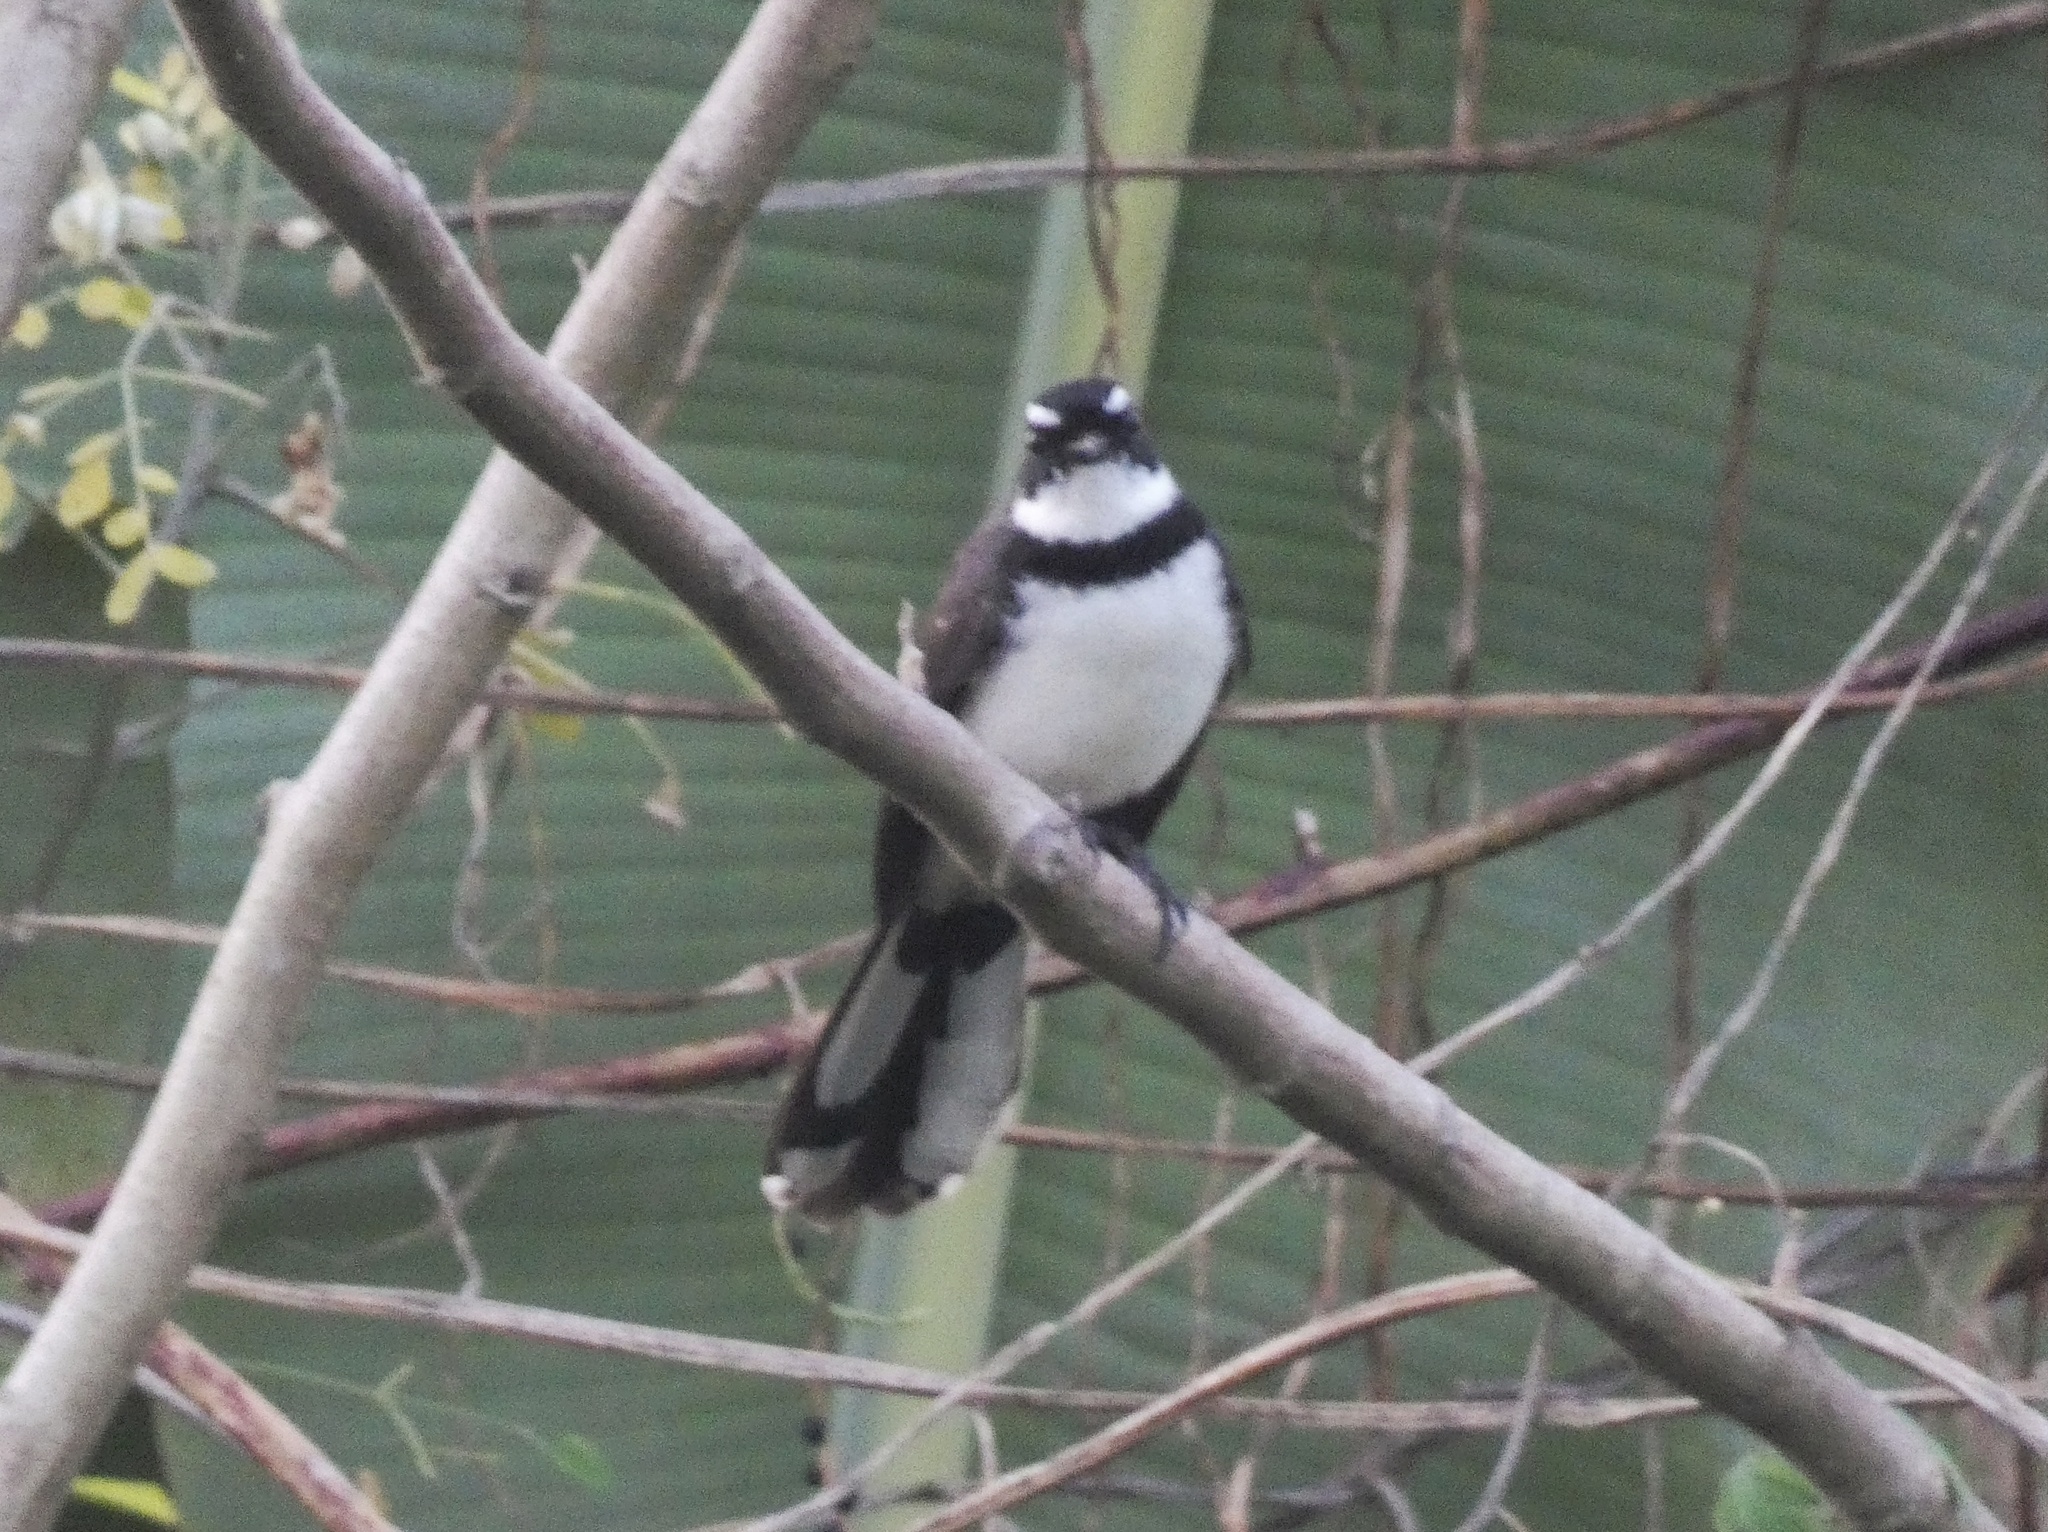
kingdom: Animalia
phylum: Chordata
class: Aves
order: Passeriformes
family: Rhipiduridae
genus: Rhipidura
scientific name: Rhipidura nigritorquis
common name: Philippine pied fantail
